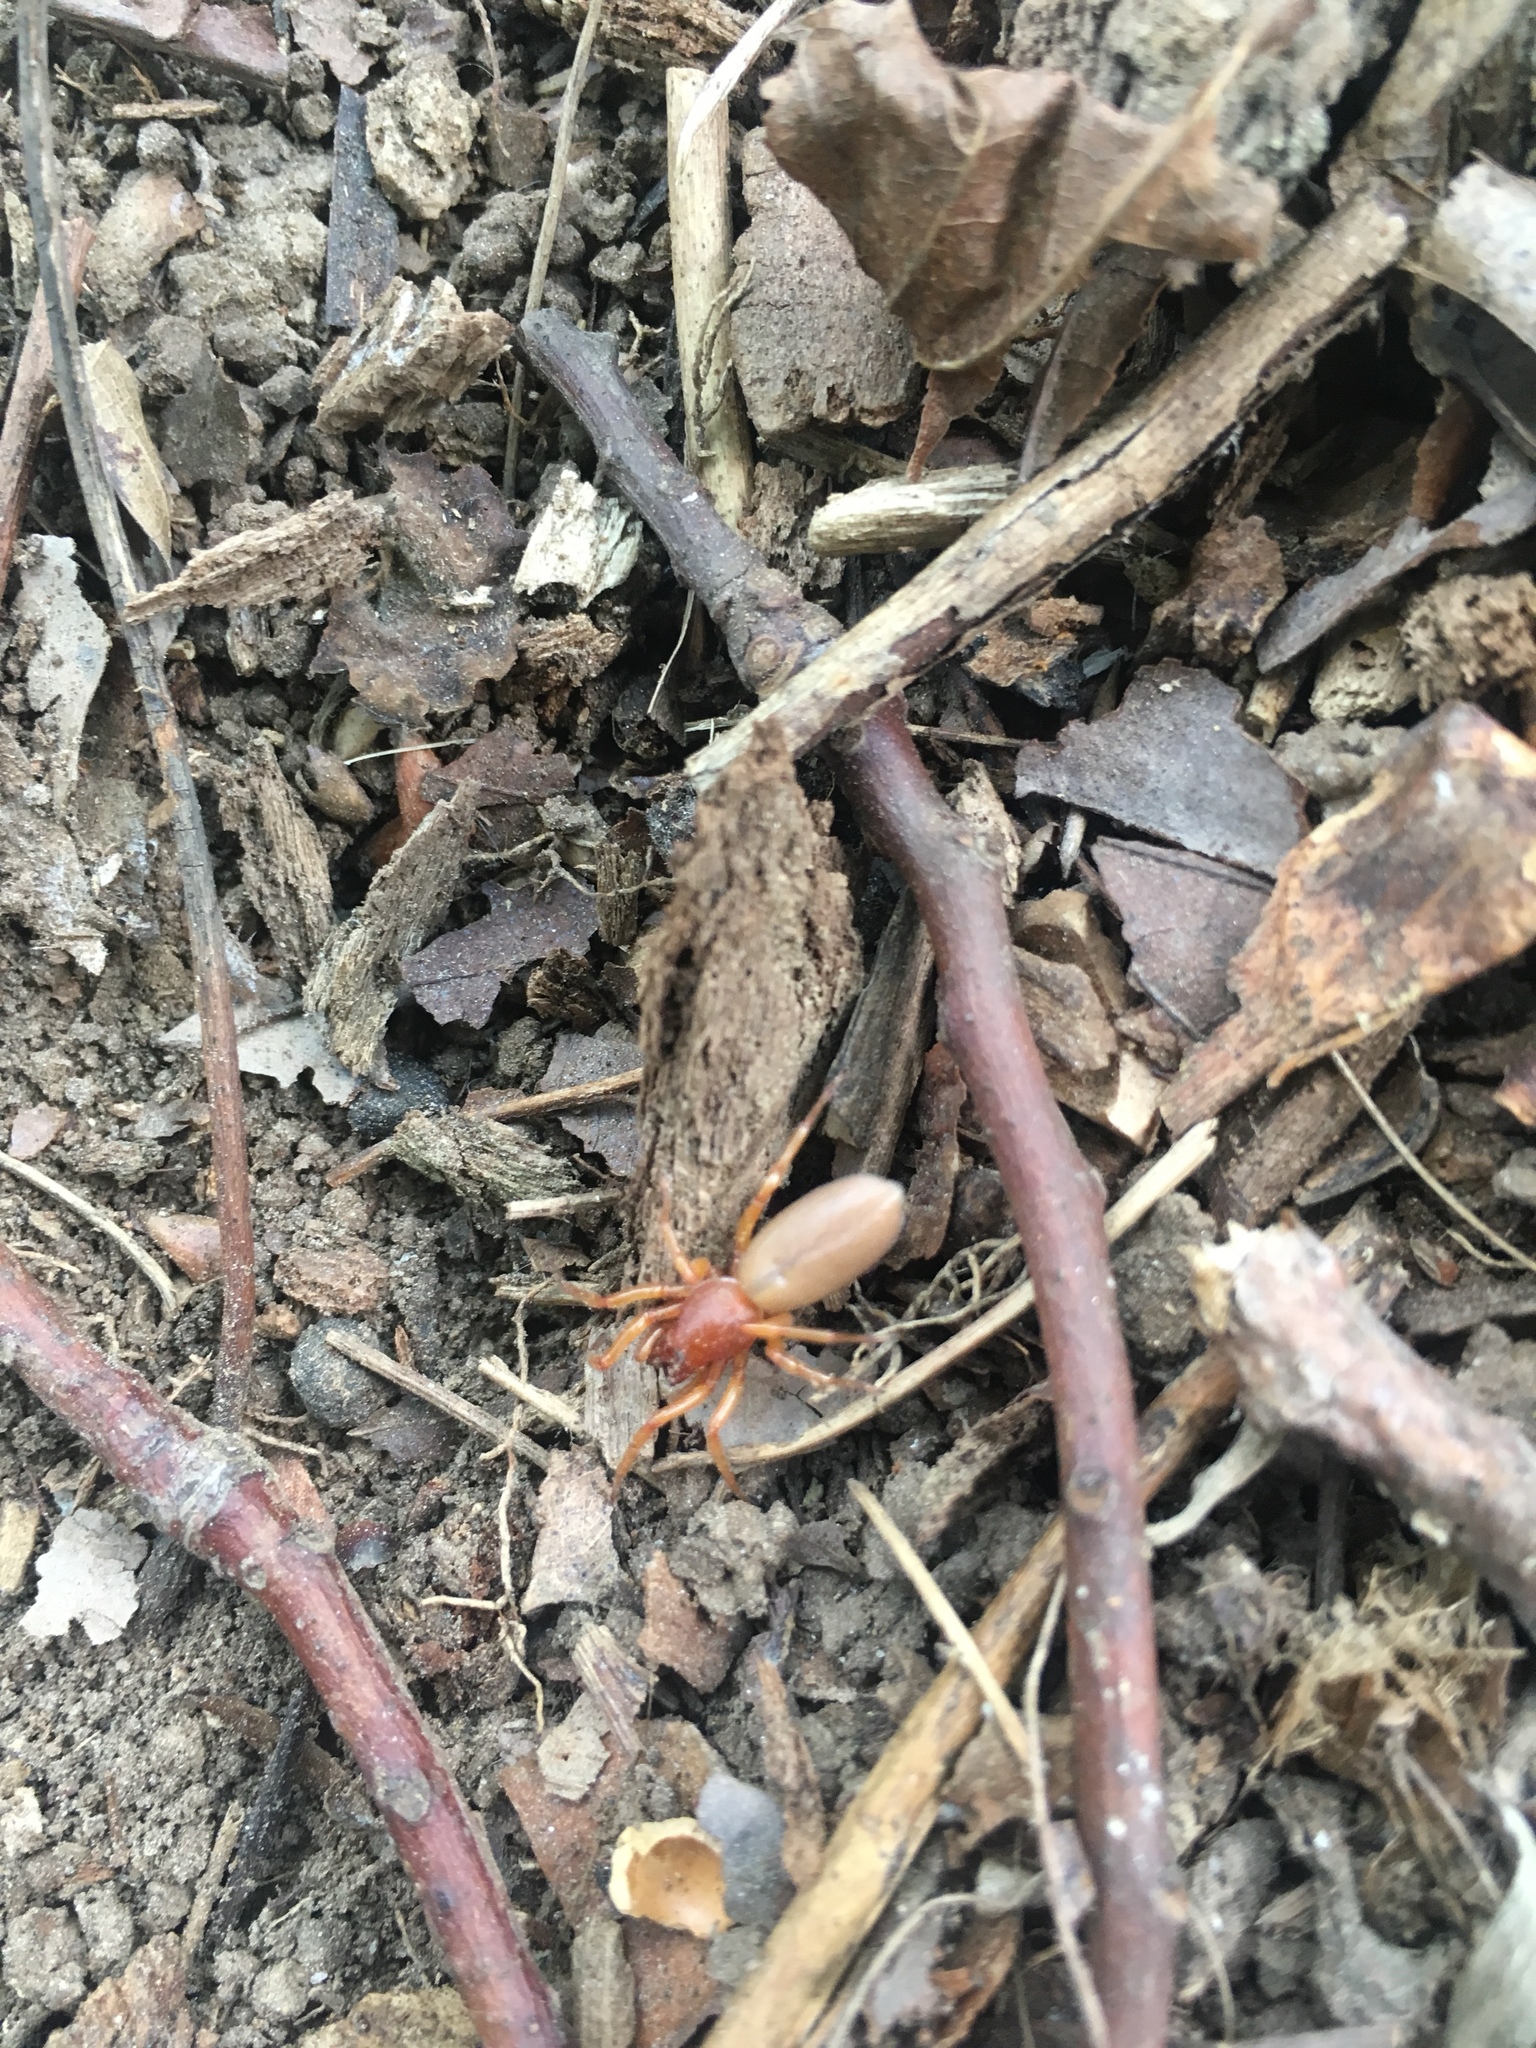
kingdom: Animalia
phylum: Arthropoda
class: Arachnida
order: Araneae
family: Dysderidae
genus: Dysdera
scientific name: Dysdera crocata
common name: Woodlouse spider
